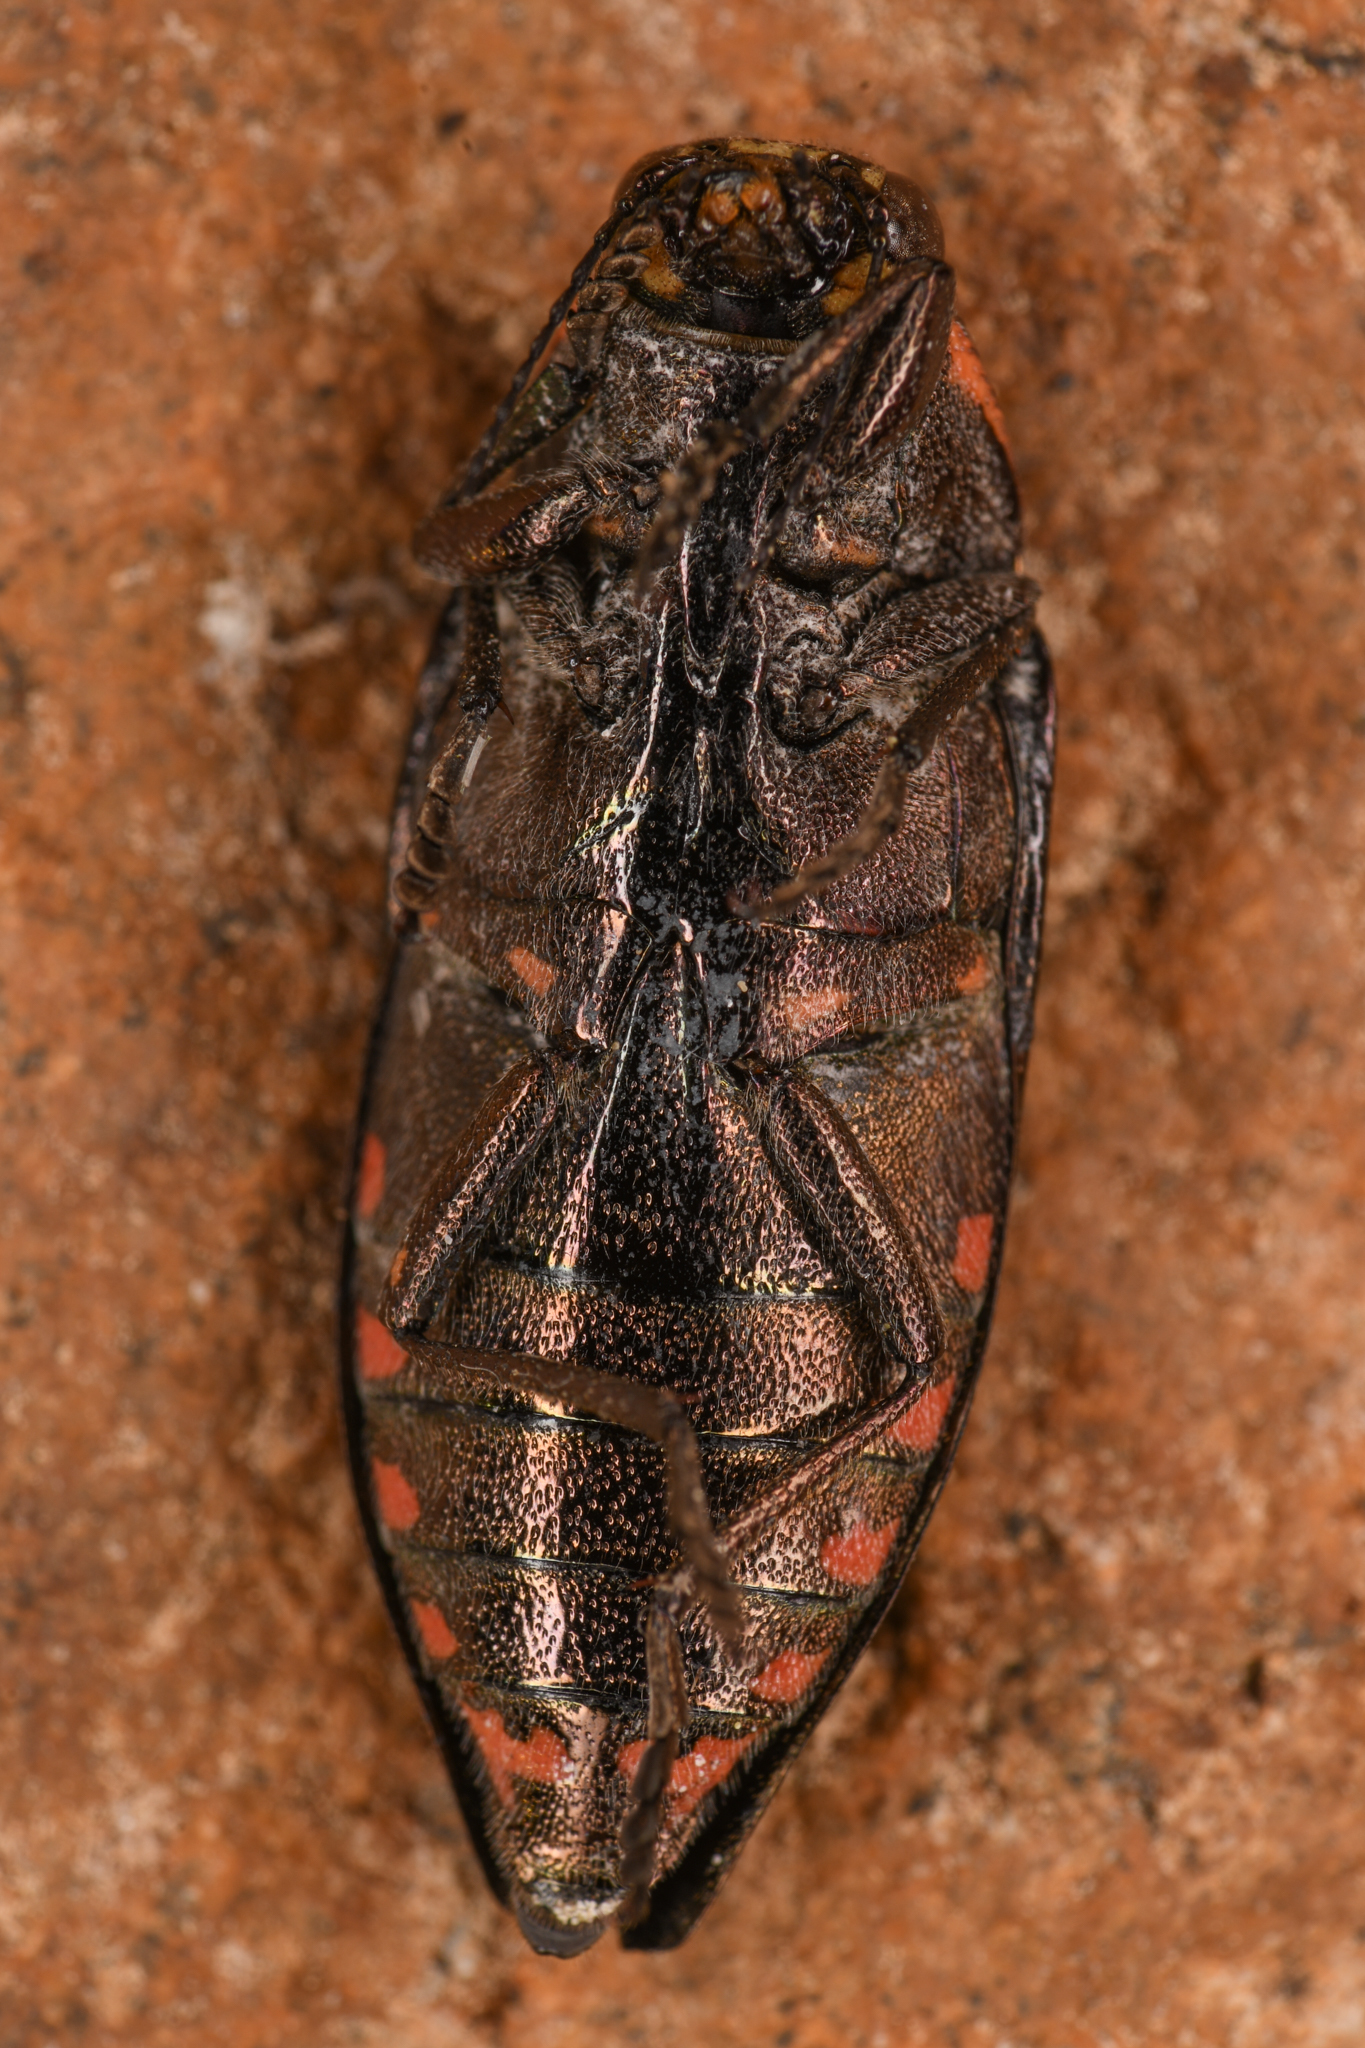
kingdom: Animalia
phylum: Arthropoda
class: Insecta
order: Coleoptera
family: Buprestidae
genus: Buprestis
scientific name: Buprestis nutalli
